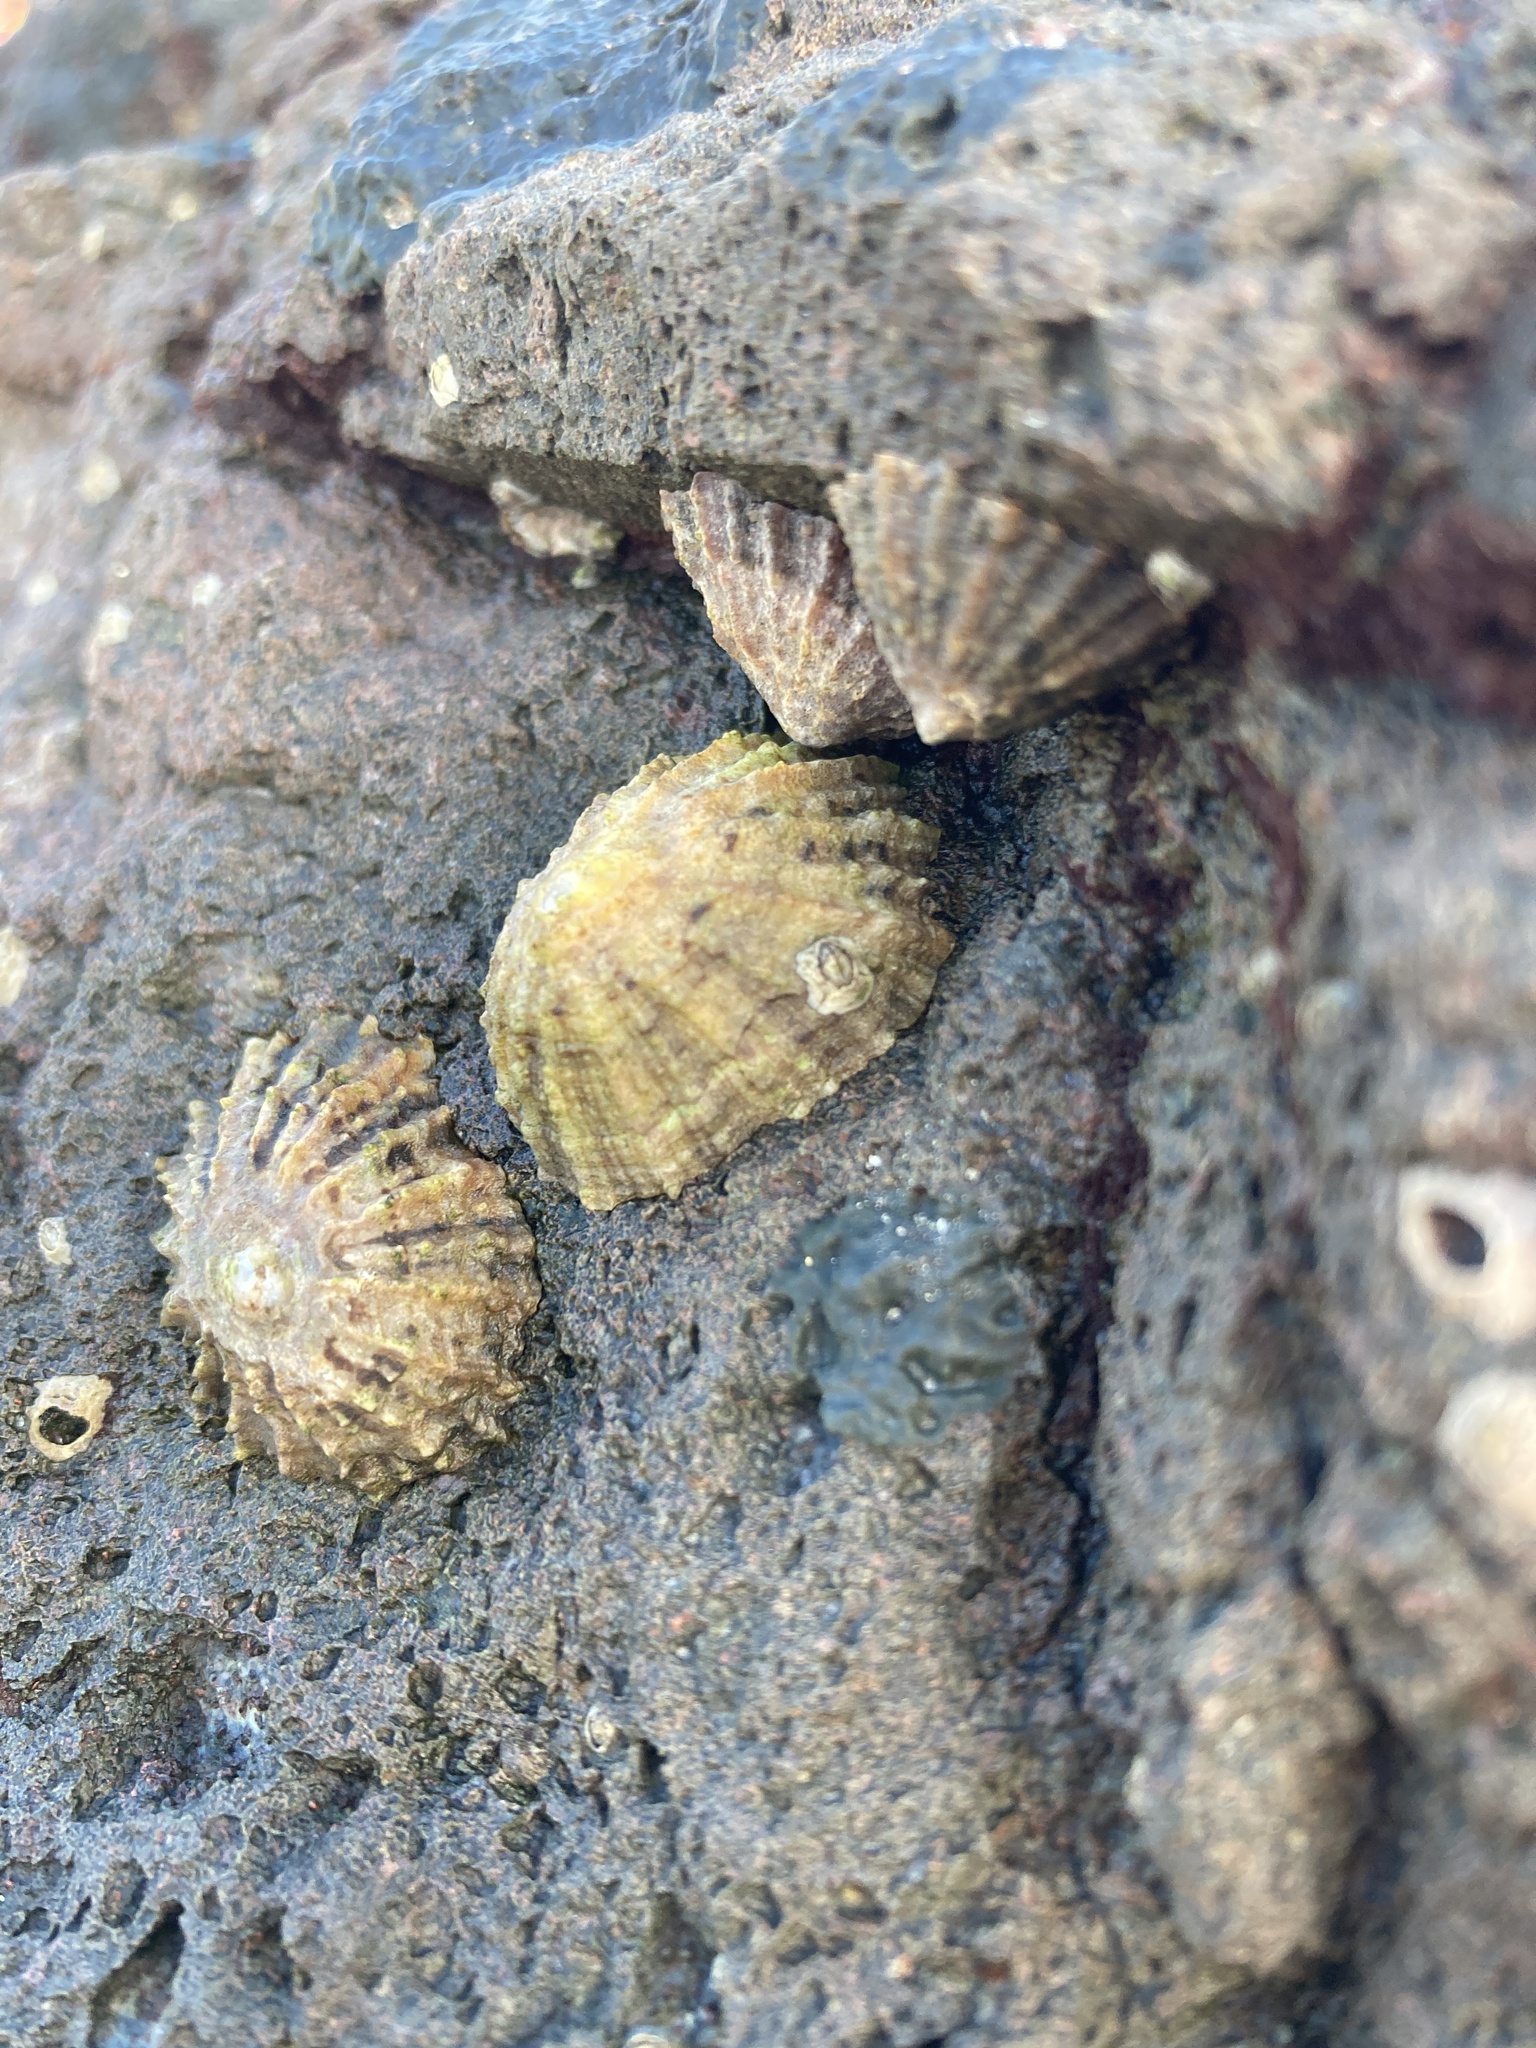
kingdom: Animalia
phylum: Mollusca
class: Gastropoda
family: Patellidae
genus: Patella
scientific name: Patella vulgata
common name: Common limpet
